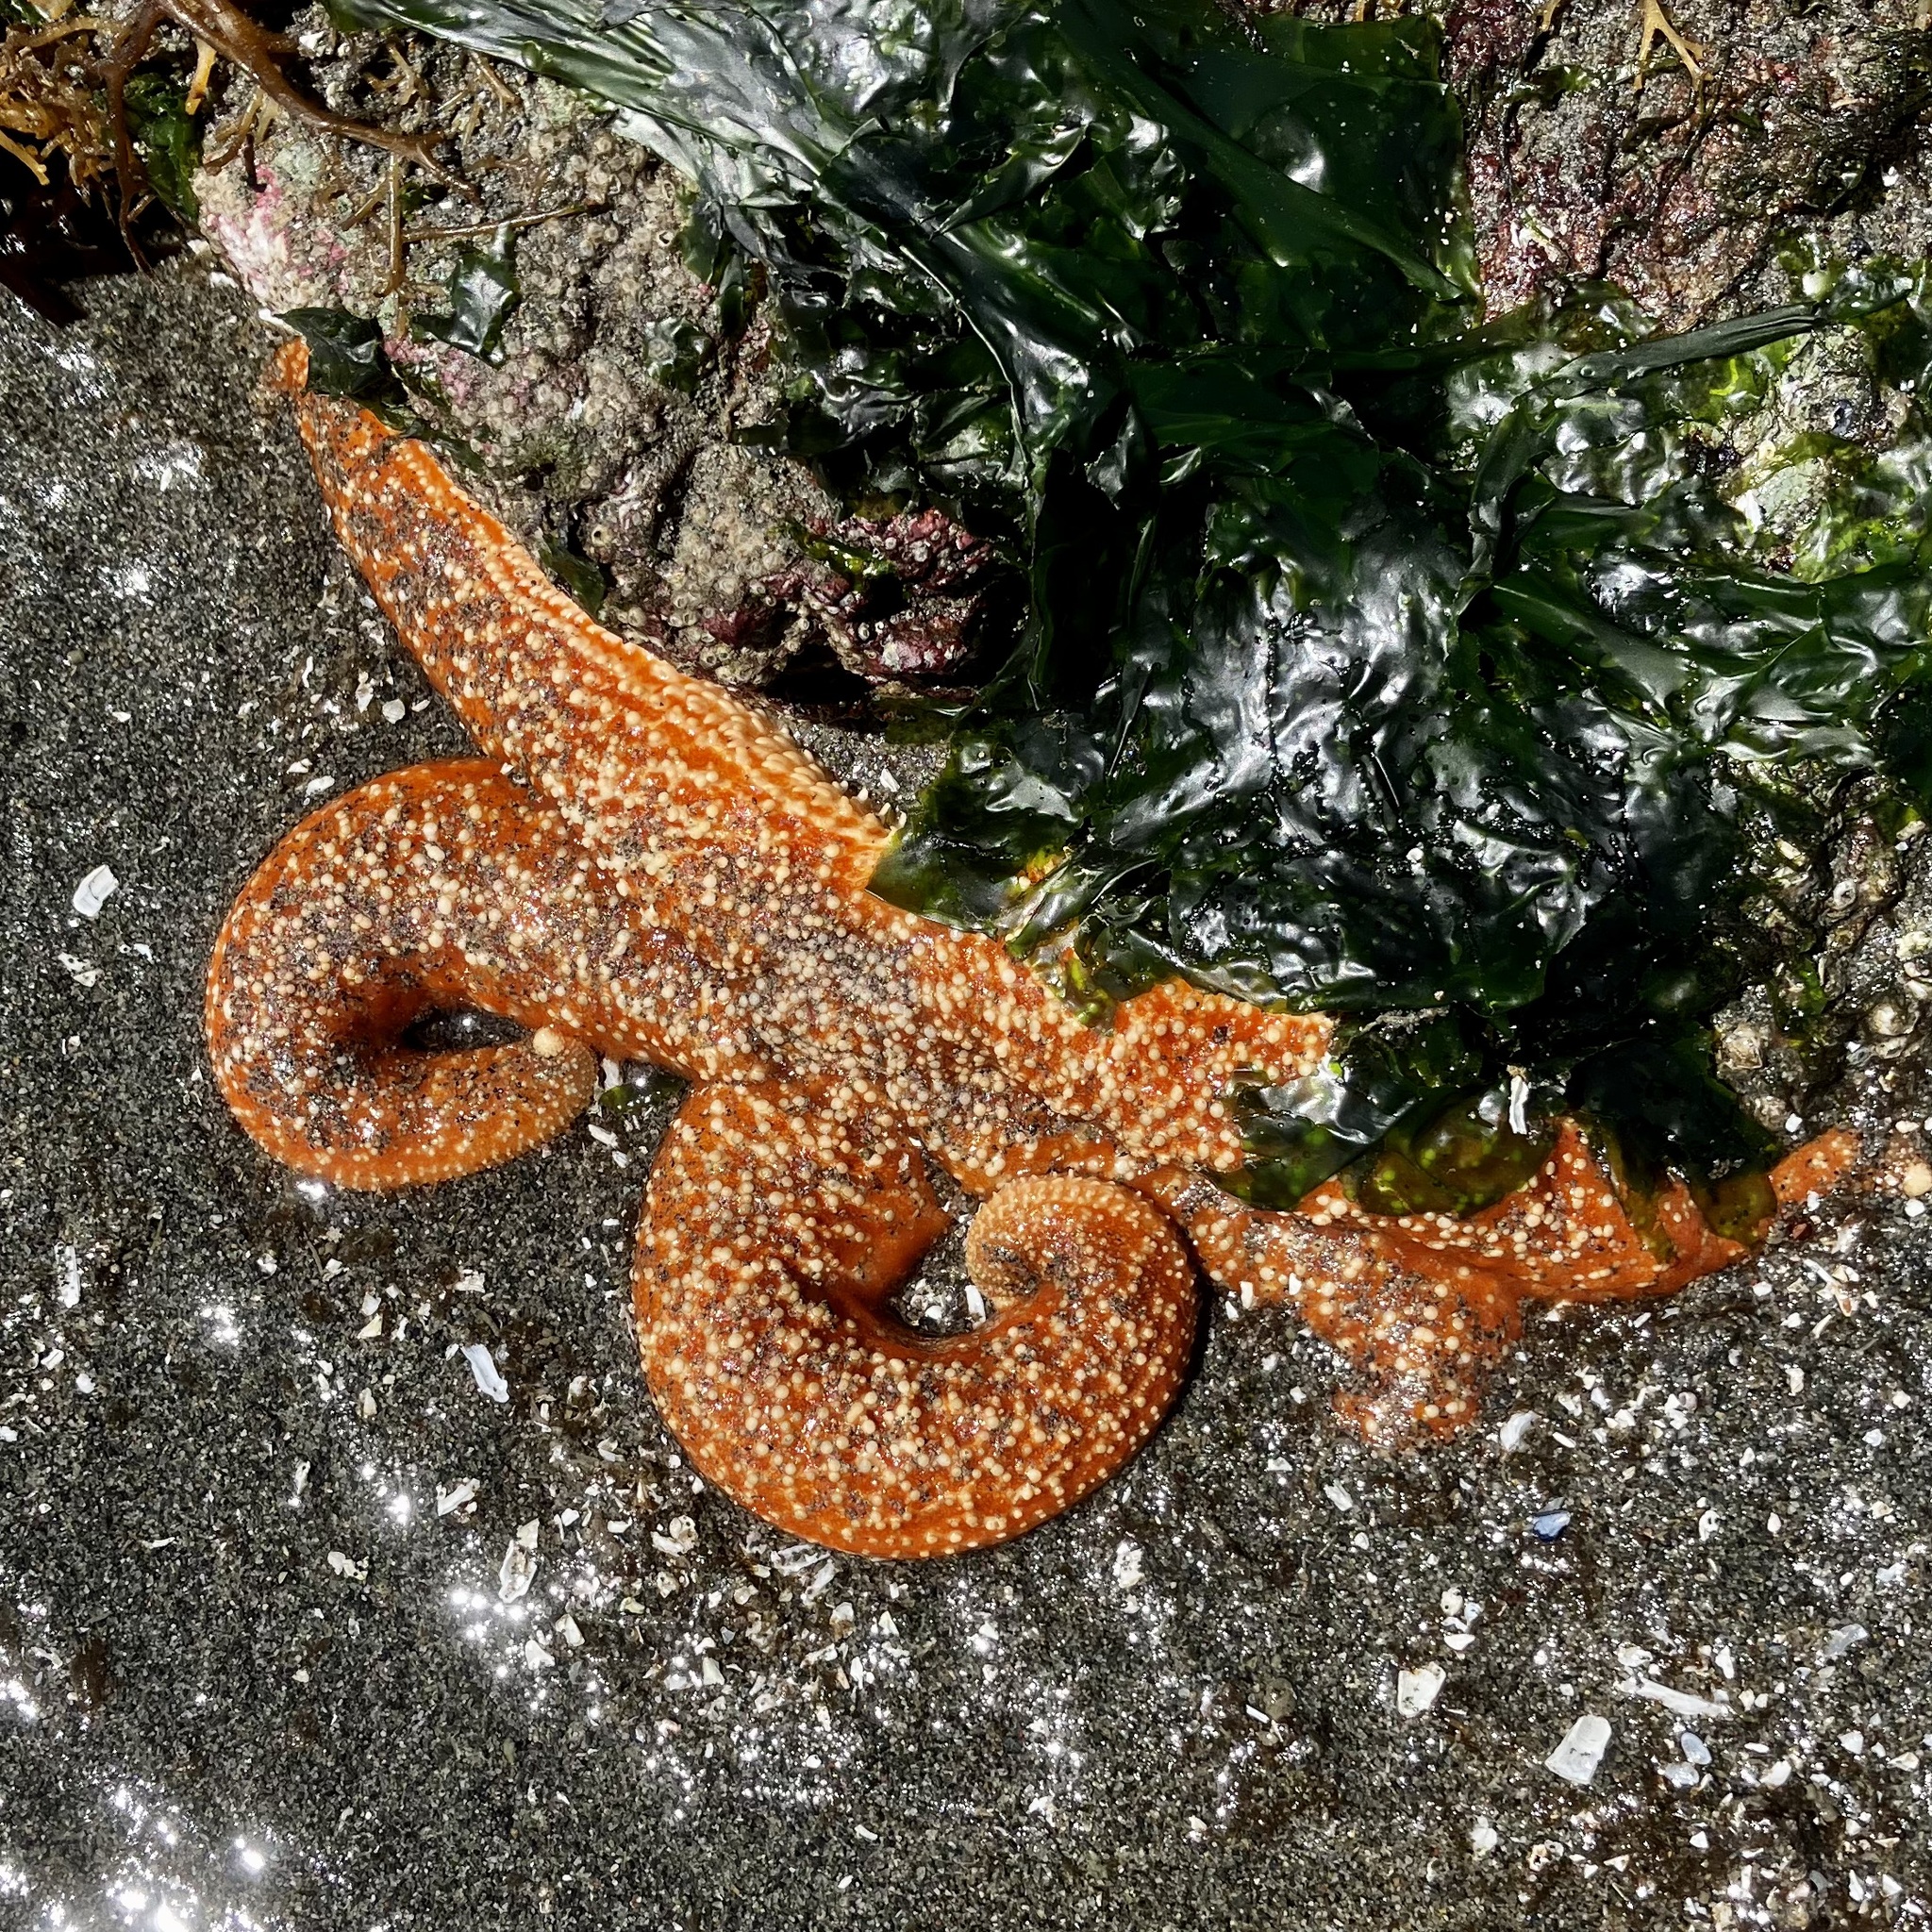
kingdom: Animalia
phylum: Echinodermata
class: Asteroidea
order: Forcipulatida
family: Asteriidae
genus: Evasterias
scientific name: Evasterias troschelii
